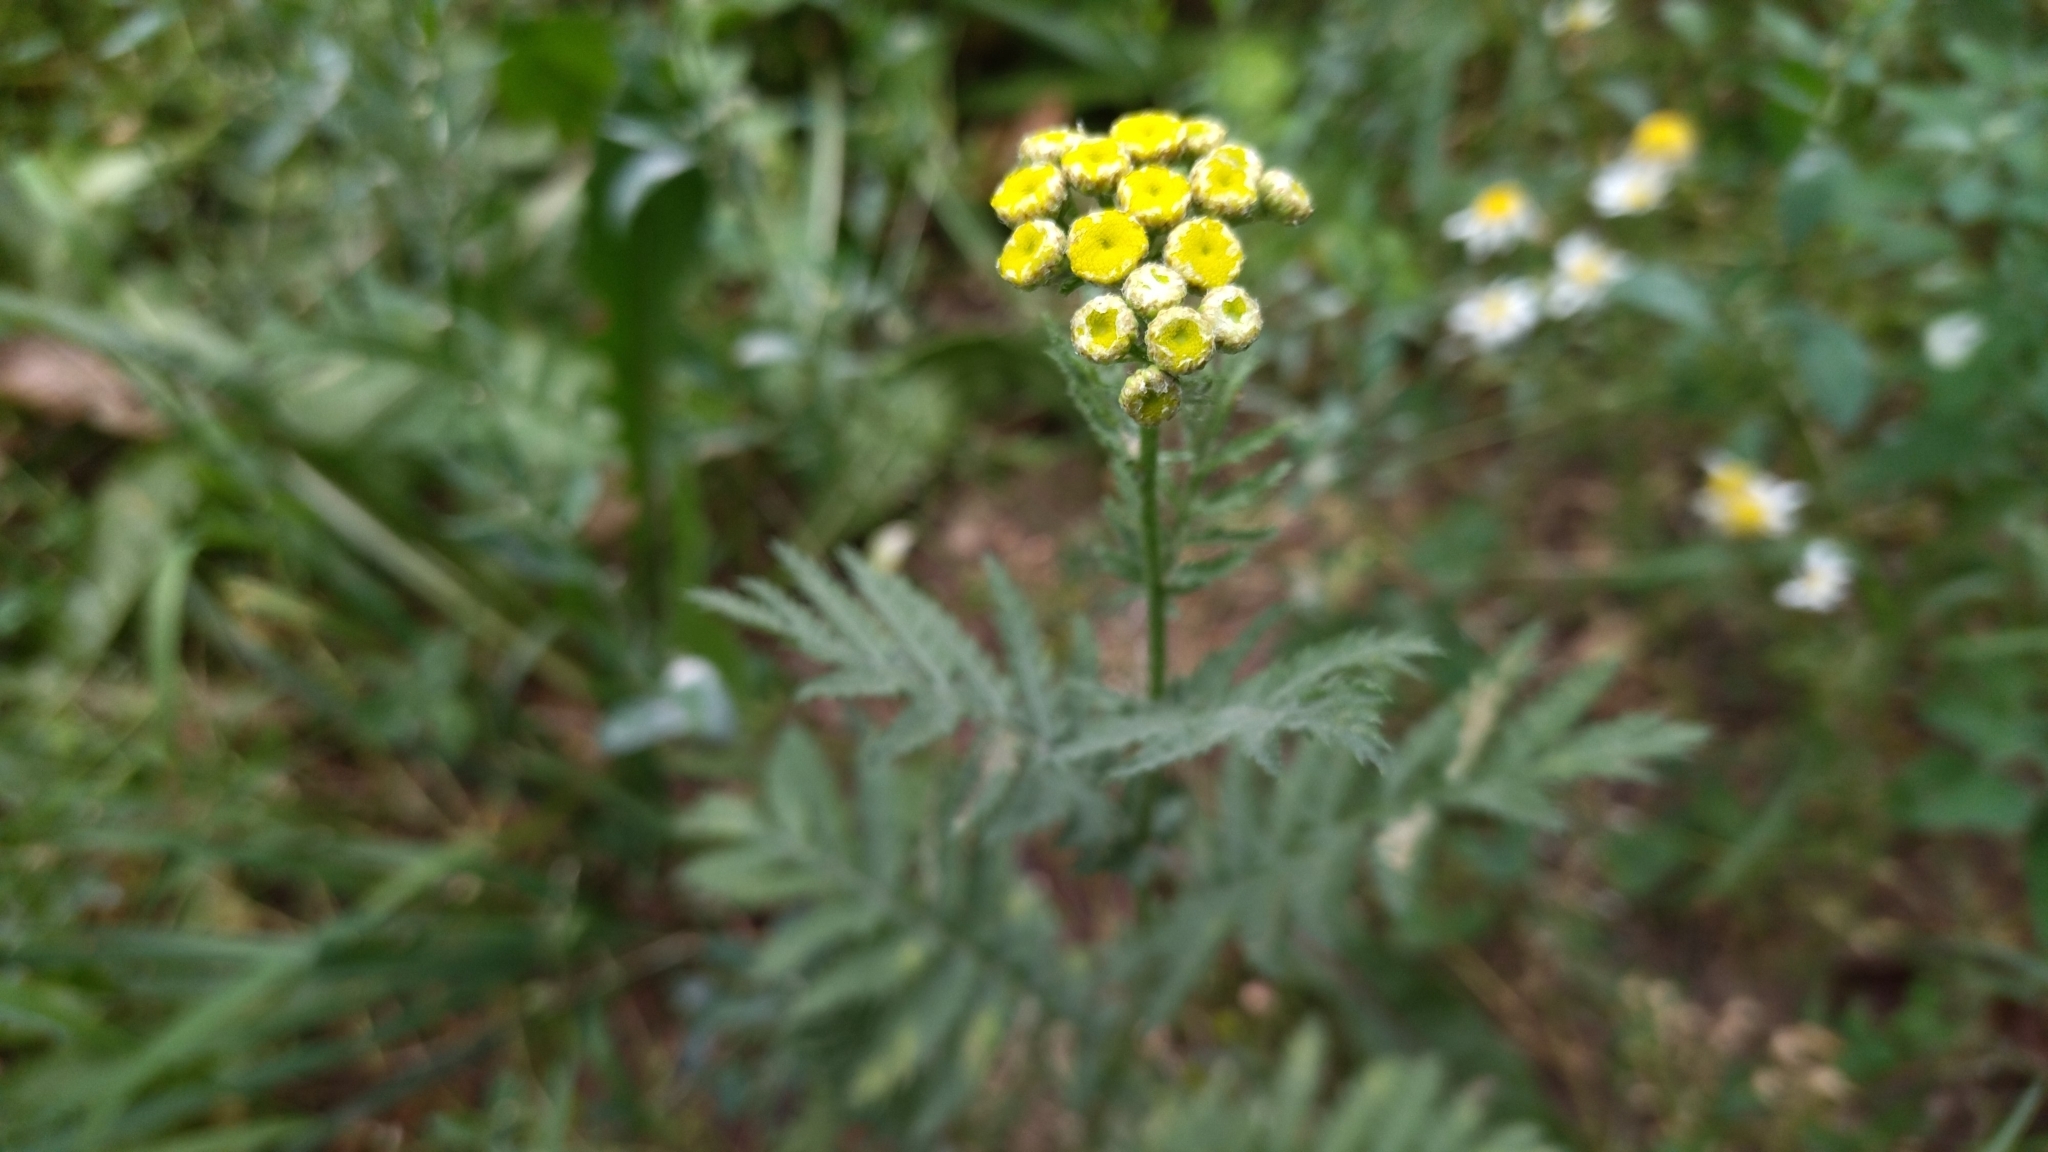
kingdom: Plantae
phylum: Tracheophyta
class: Magnoliopsida
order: Asterales
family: Asteraceae
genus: Tanacetum
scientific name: Tanacetum vulgare
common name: Common tansy
